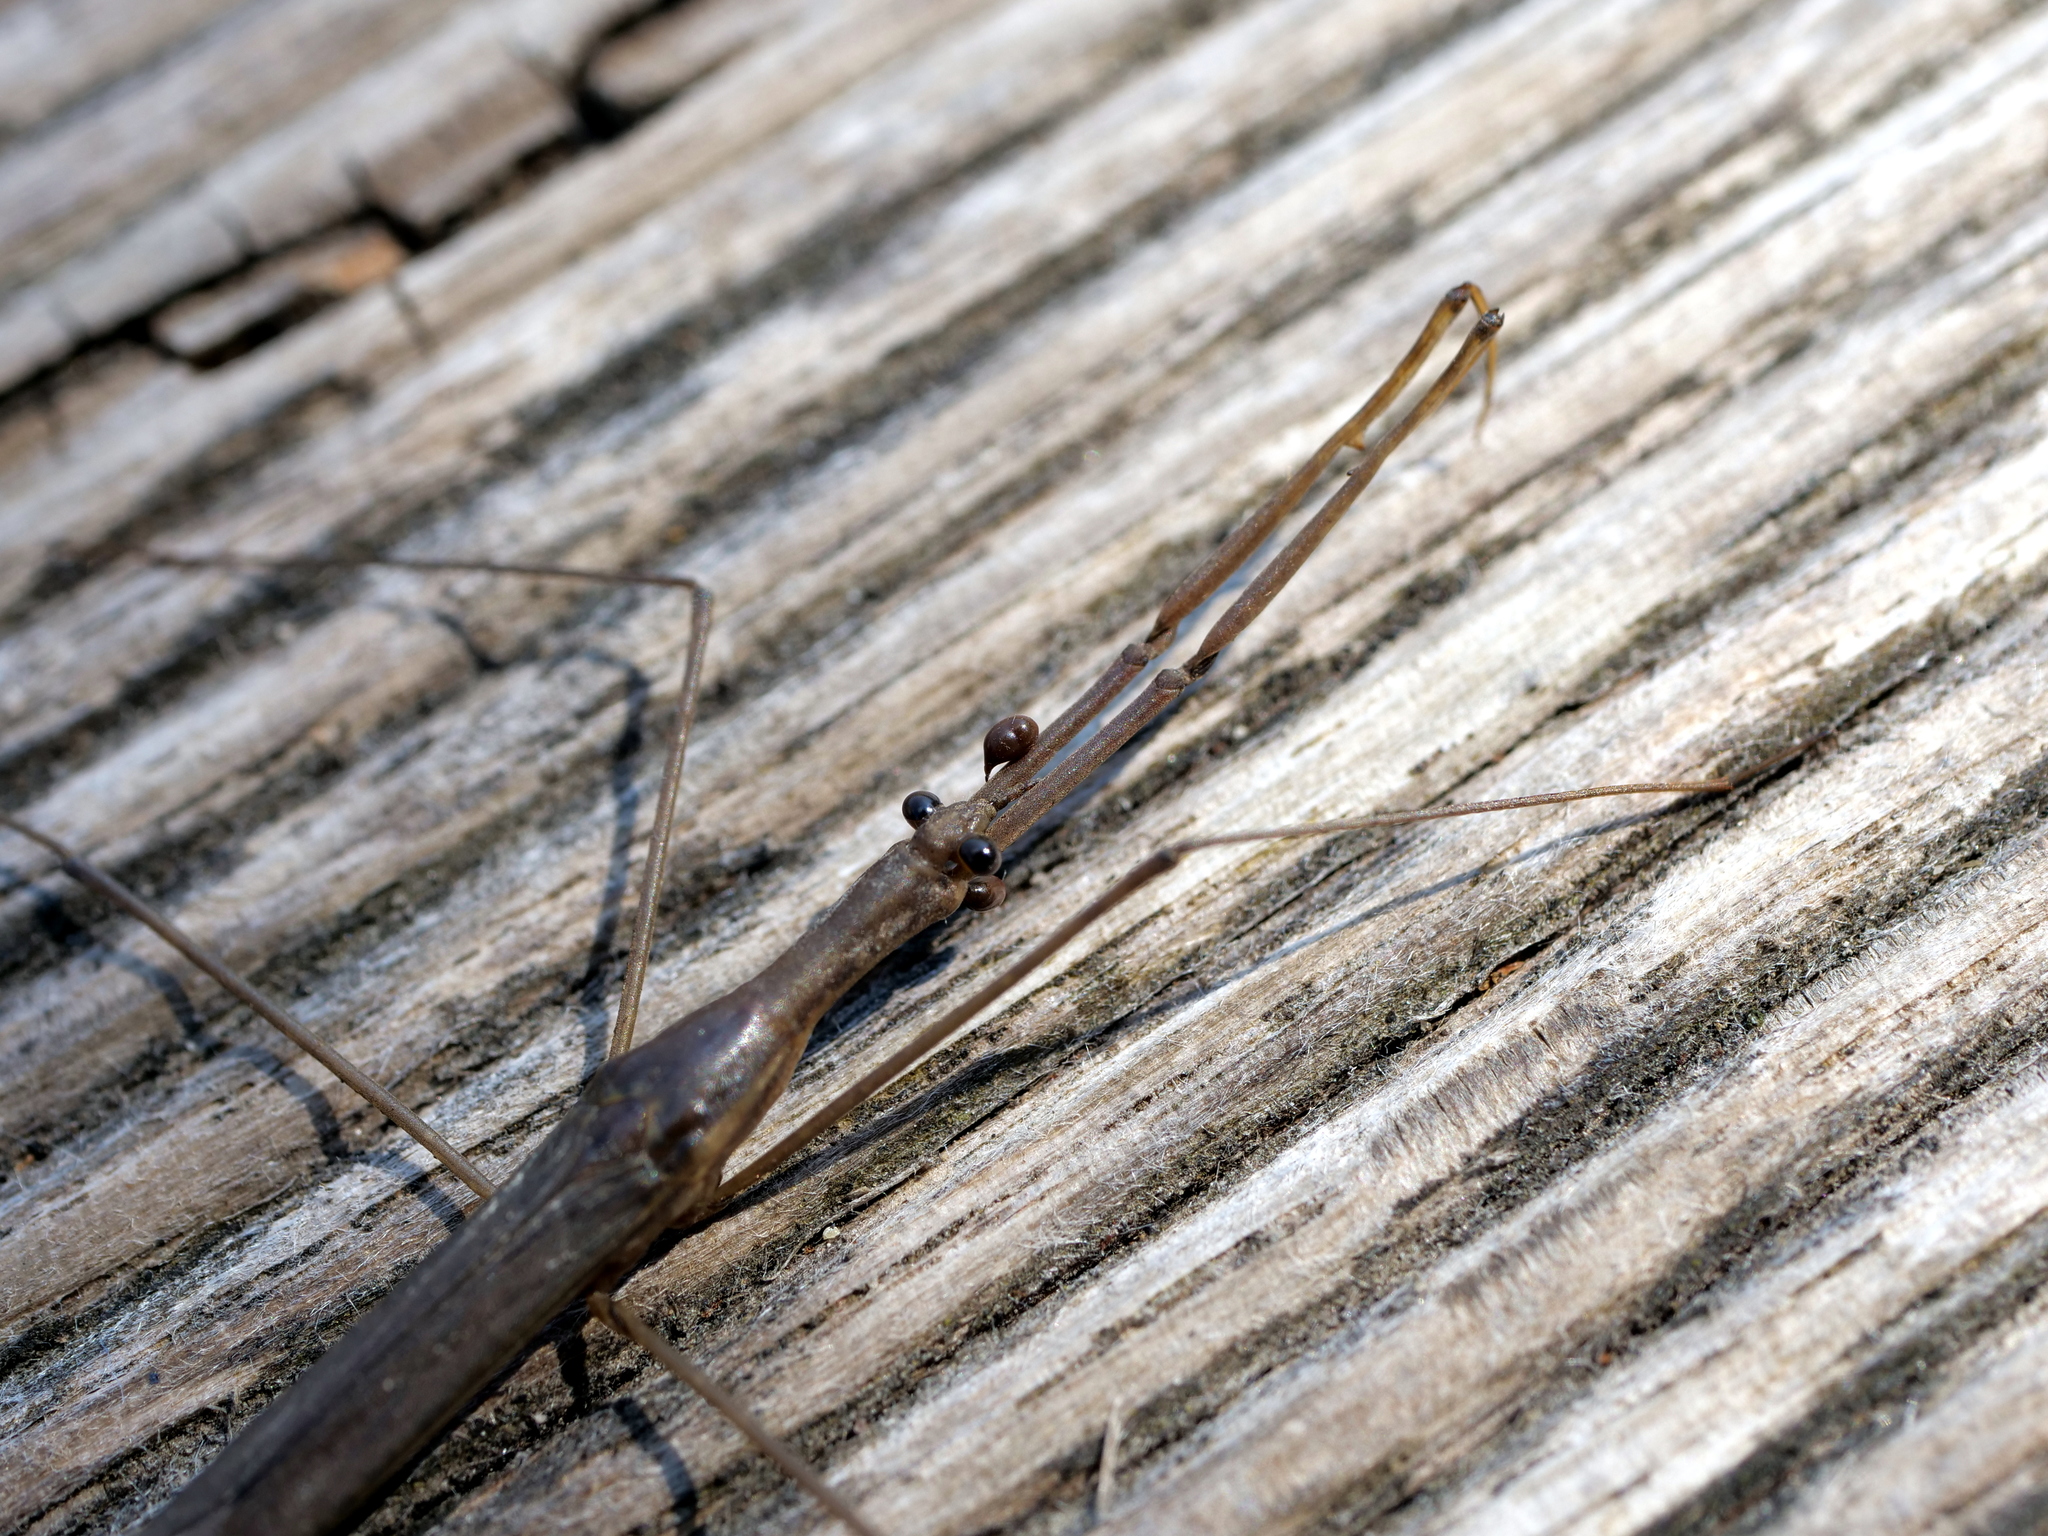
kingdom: Animalia
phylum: Arthropoda
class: Insecta
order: Hemiptera
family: Nepidae
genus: Ranatra
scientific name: Ranatra linearis
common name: Water stick insect
